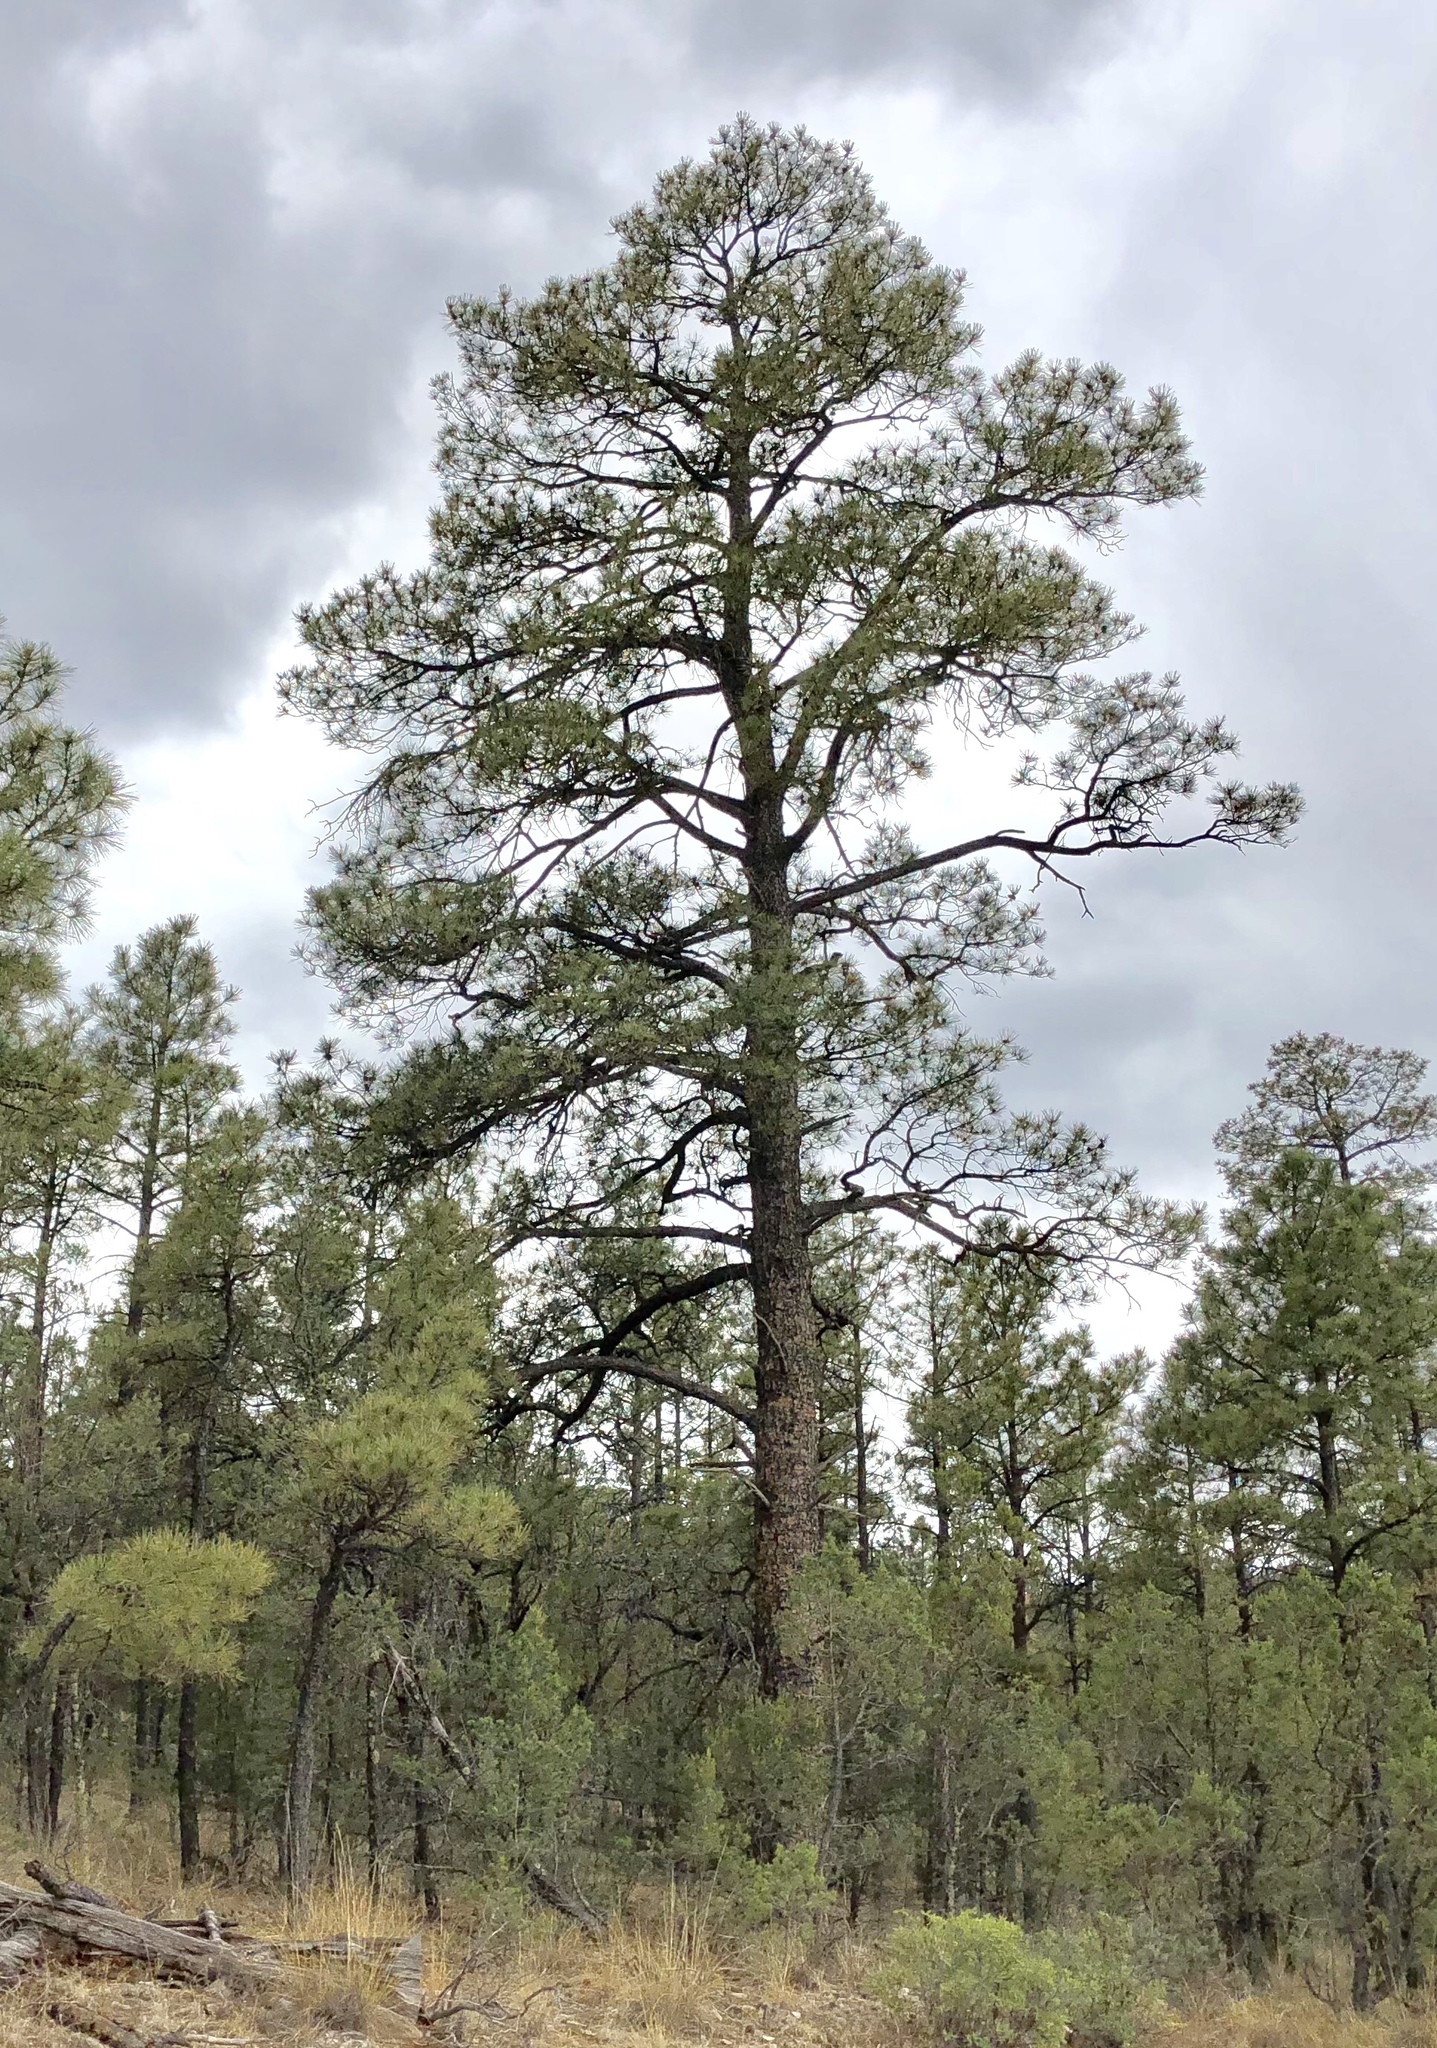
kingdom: Plantae
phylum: Tracheophyta
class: Pinopsida
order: Pinales
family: Pinaceae
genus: Pinus
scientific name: Pinus ponderosa
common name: Western yellow-pine
